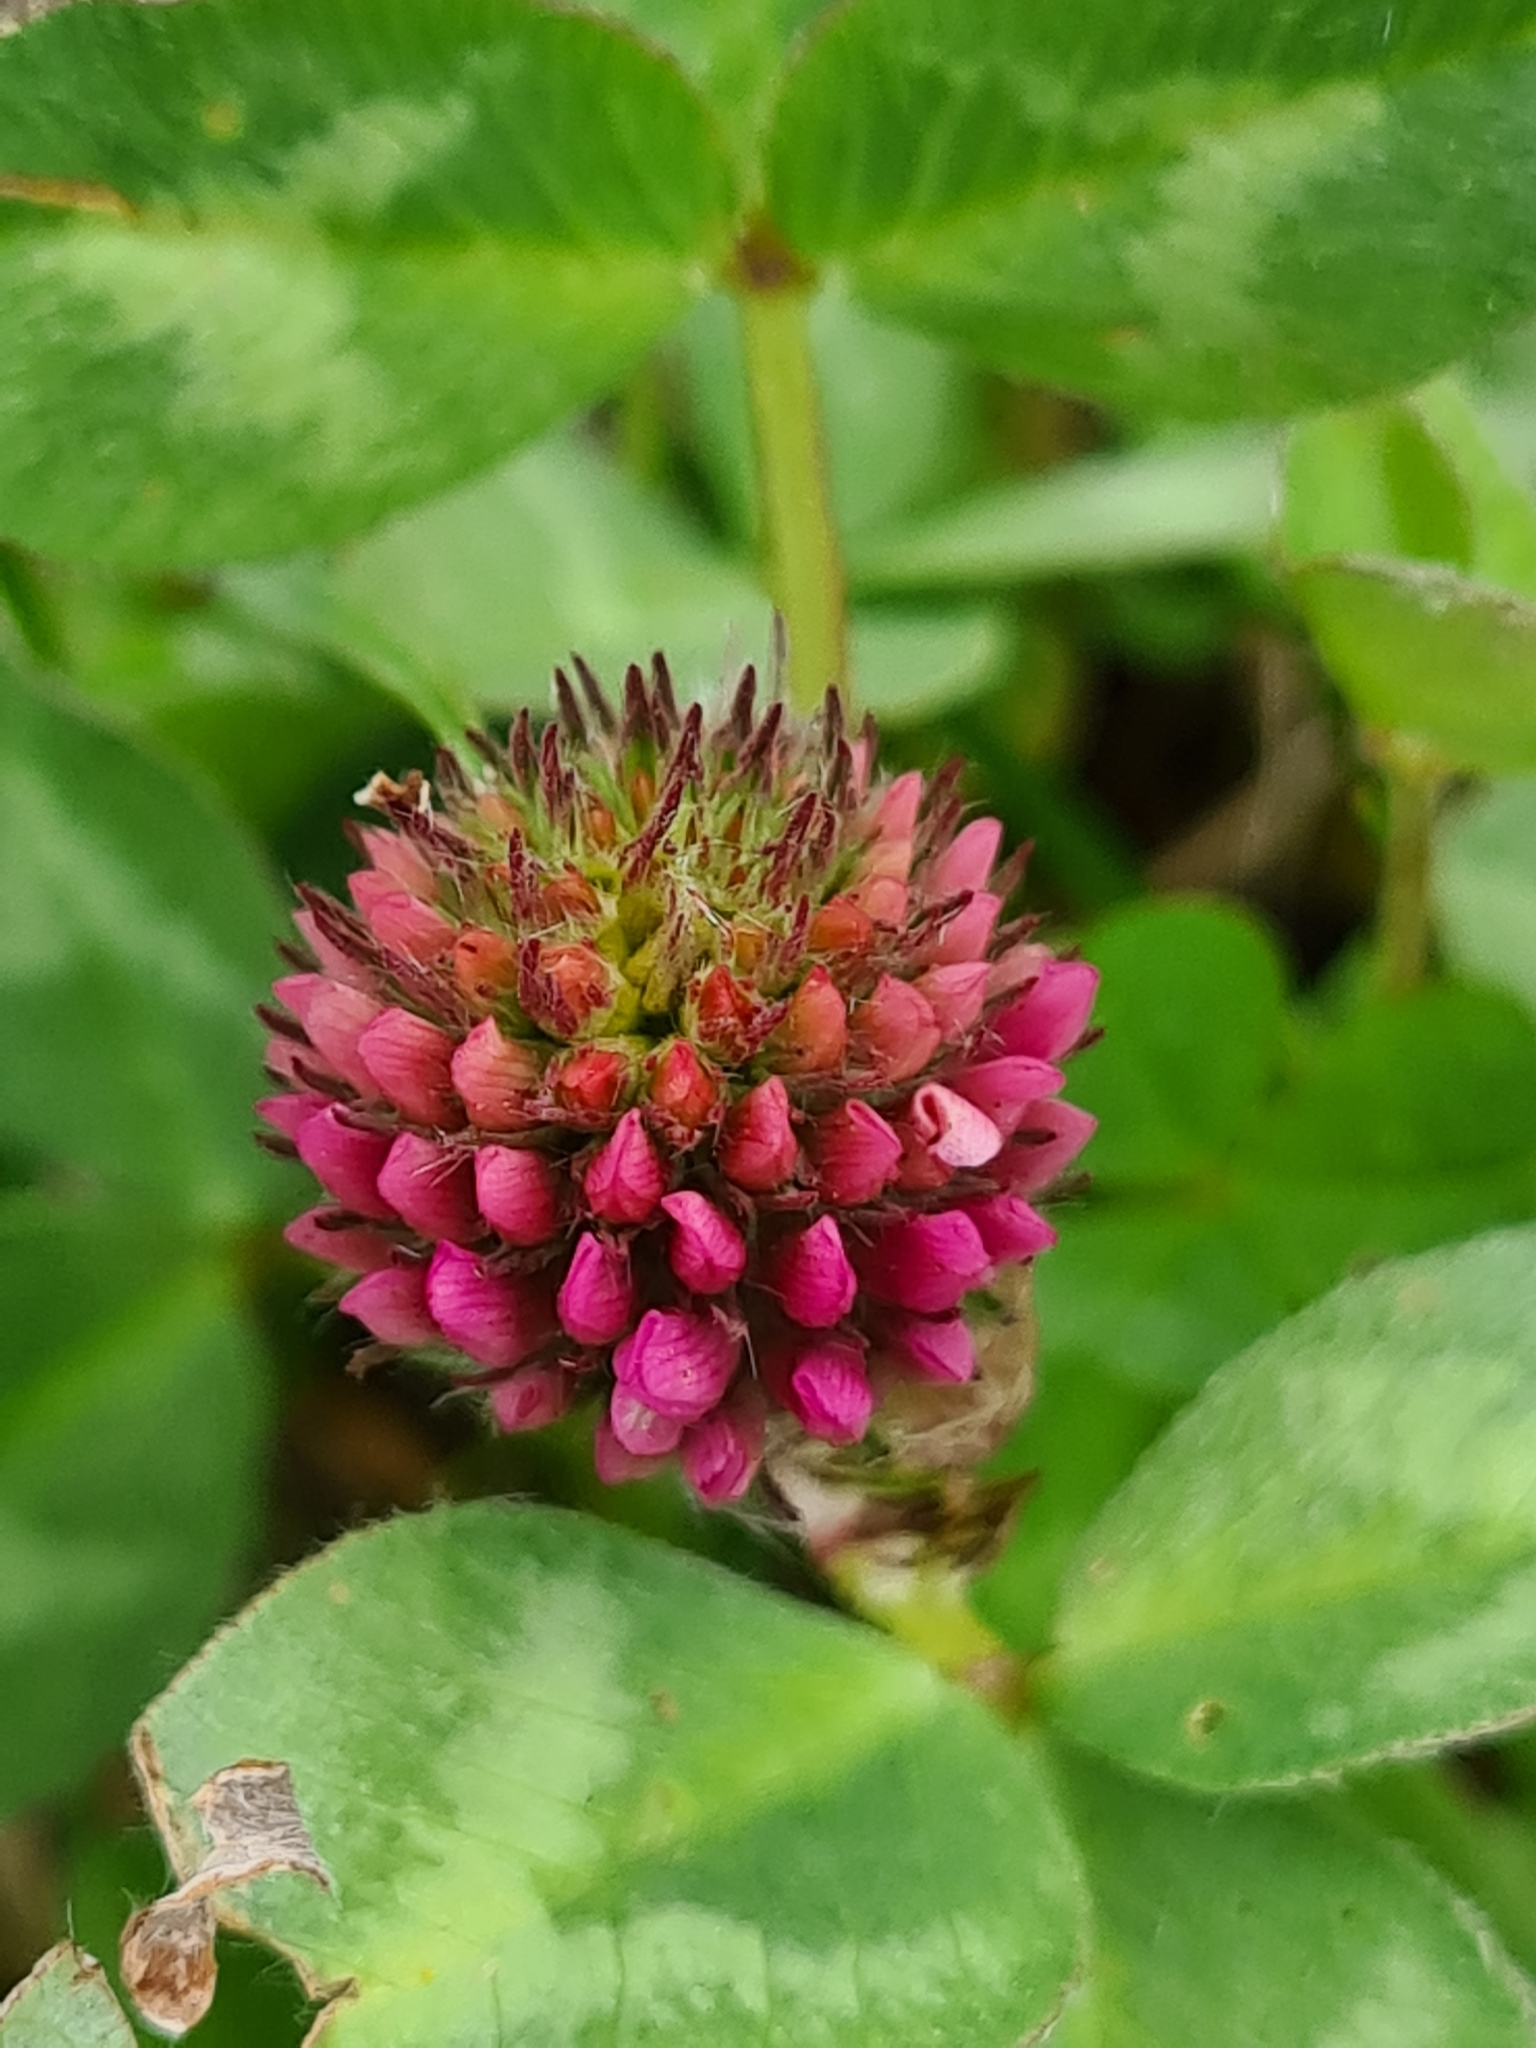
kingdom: Plantae
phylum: Tracheophyta
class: Magnoliopsida
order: Fabales
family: Fabaceae
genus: Trifolium
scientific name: Trifolium pratense
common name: Red clover
